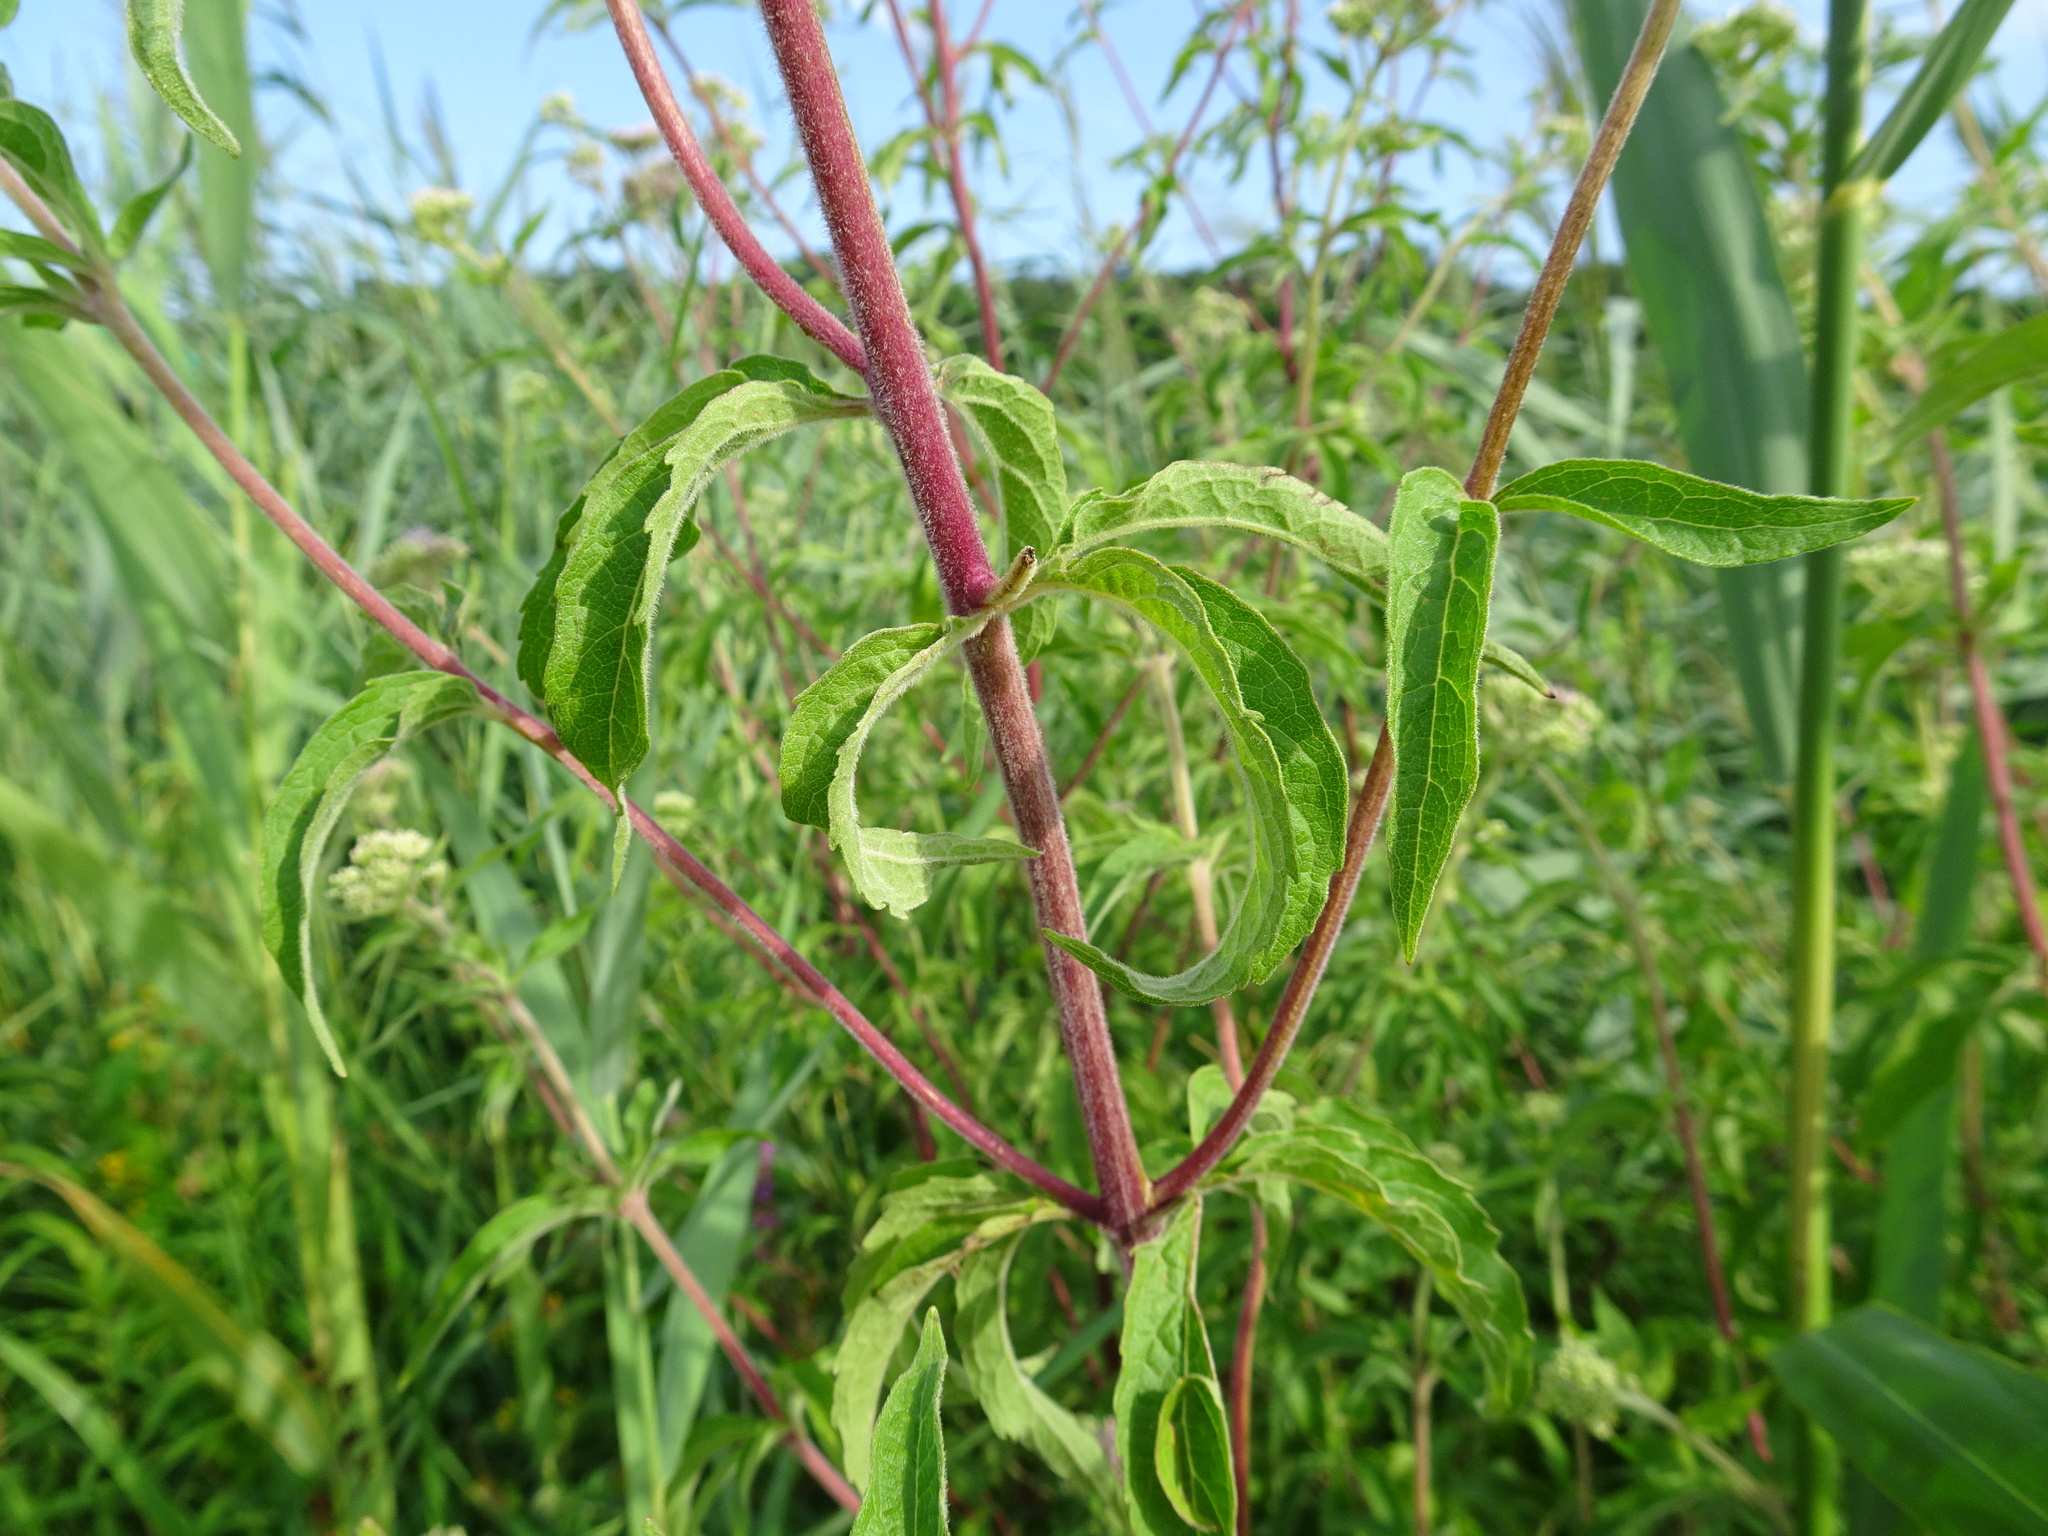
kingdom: Plantae
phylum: Tracheophyta
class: Magnoliopsida
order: Asterales
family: Asteraceae
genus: Eupatorium
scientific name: Eupatorium cannabinum
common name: Hemp-agrimony
